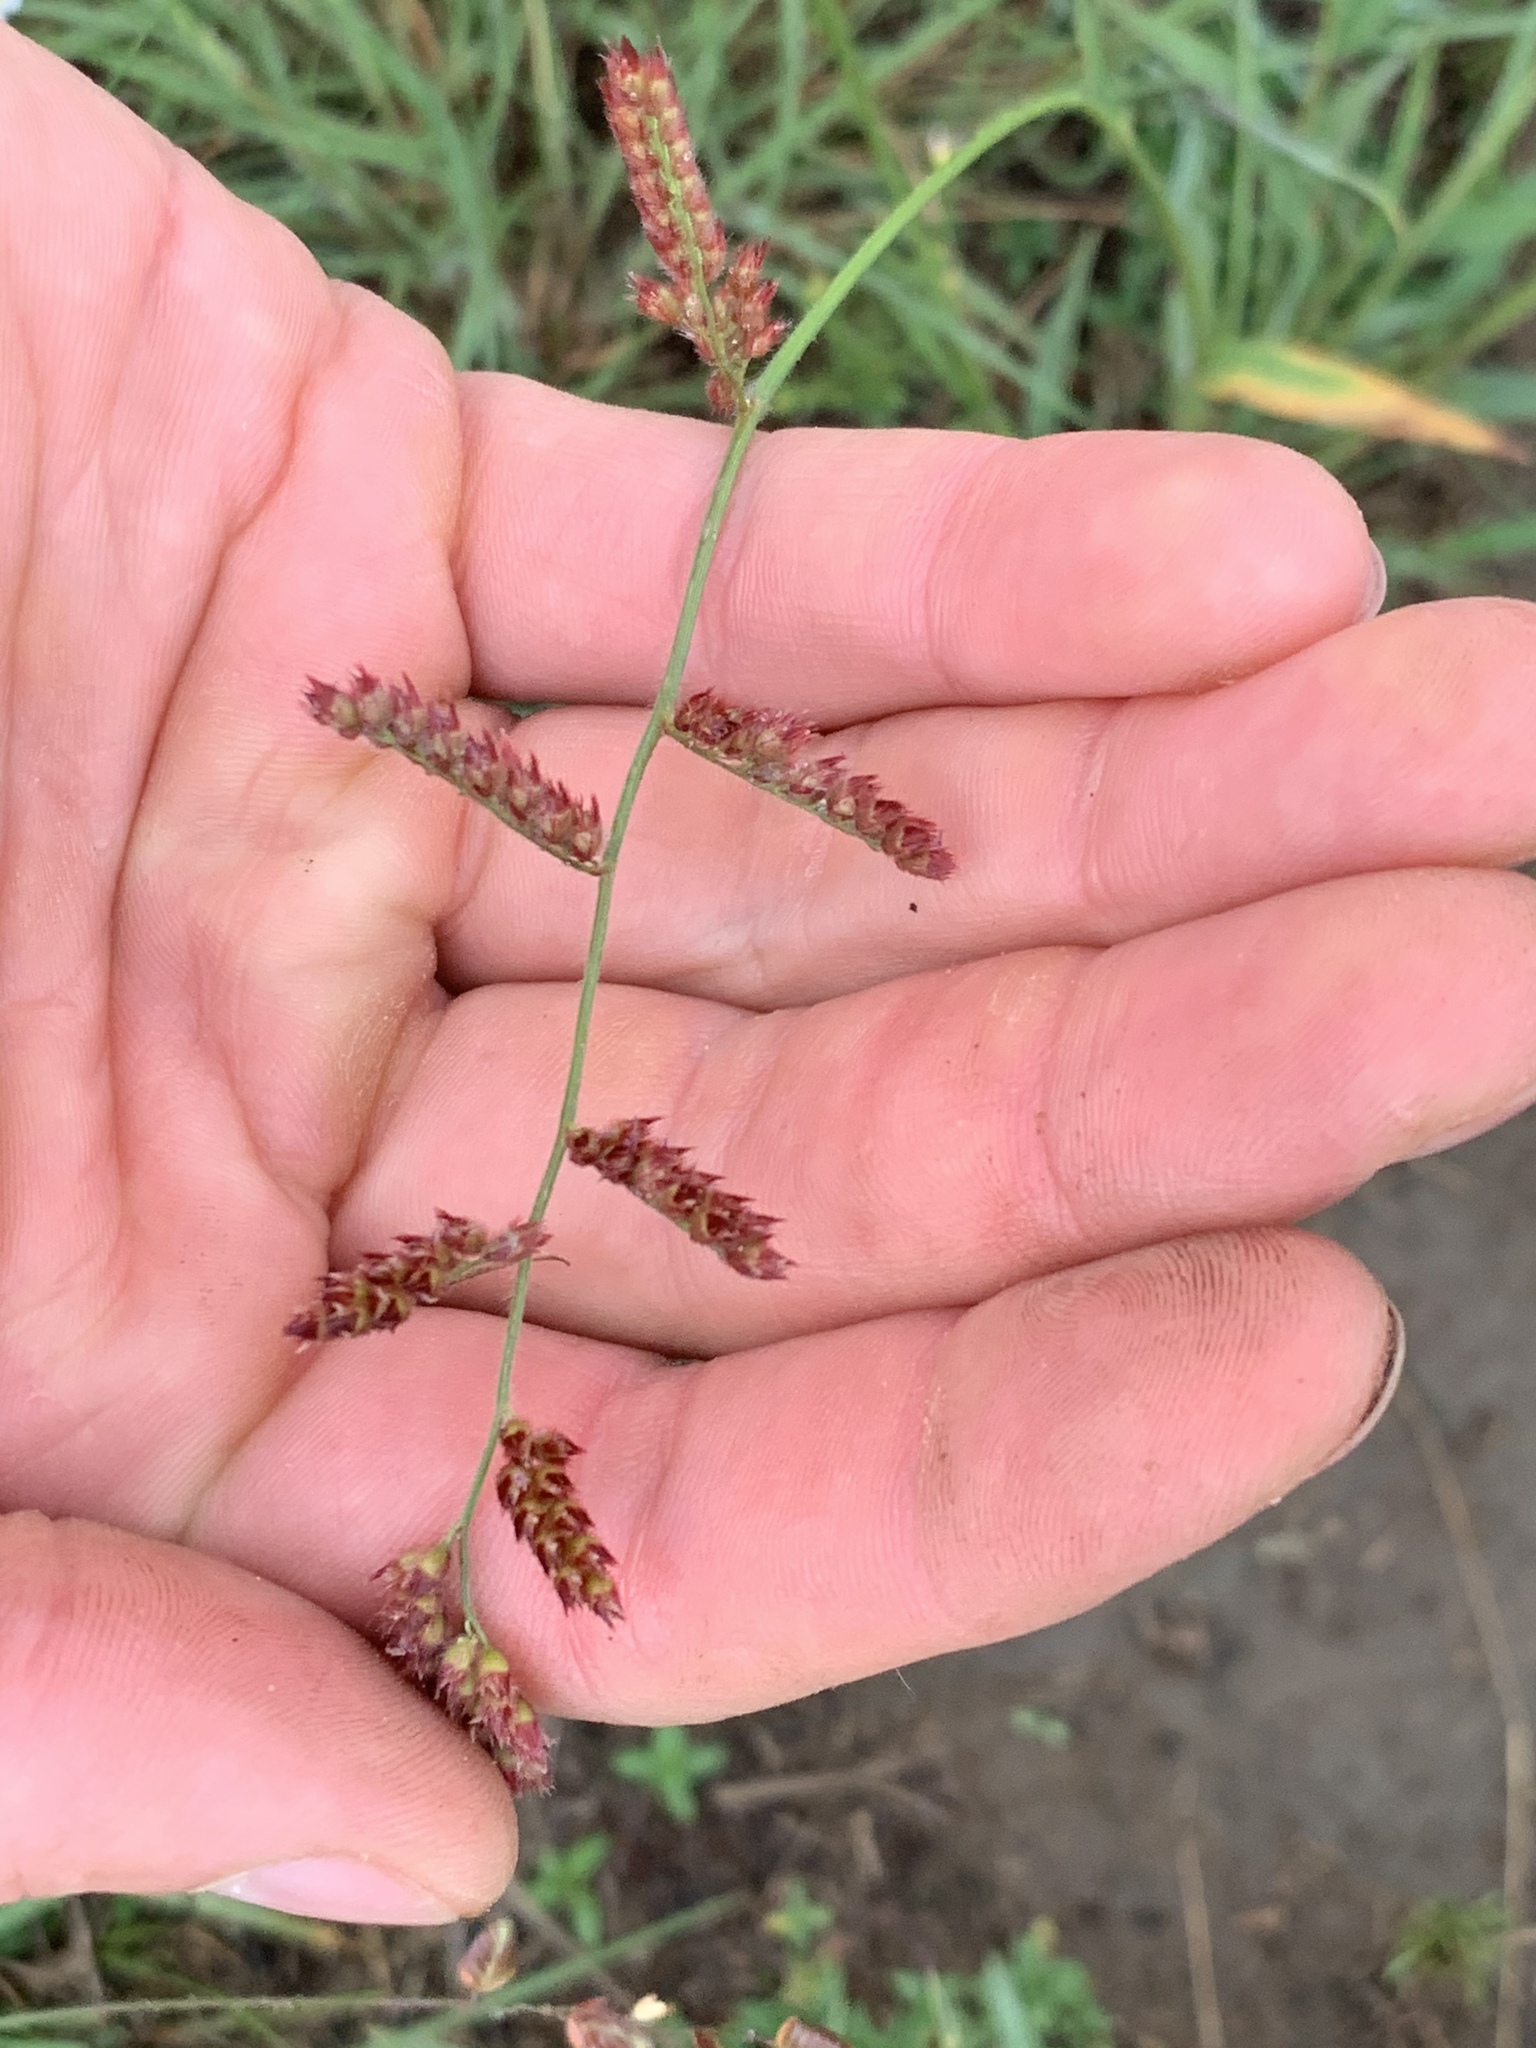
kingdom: Plantae
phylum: Tracheophyta
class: Liliopsida
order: Poales
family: Poaceae
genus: Urochloa
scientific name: Urochloa serrata
